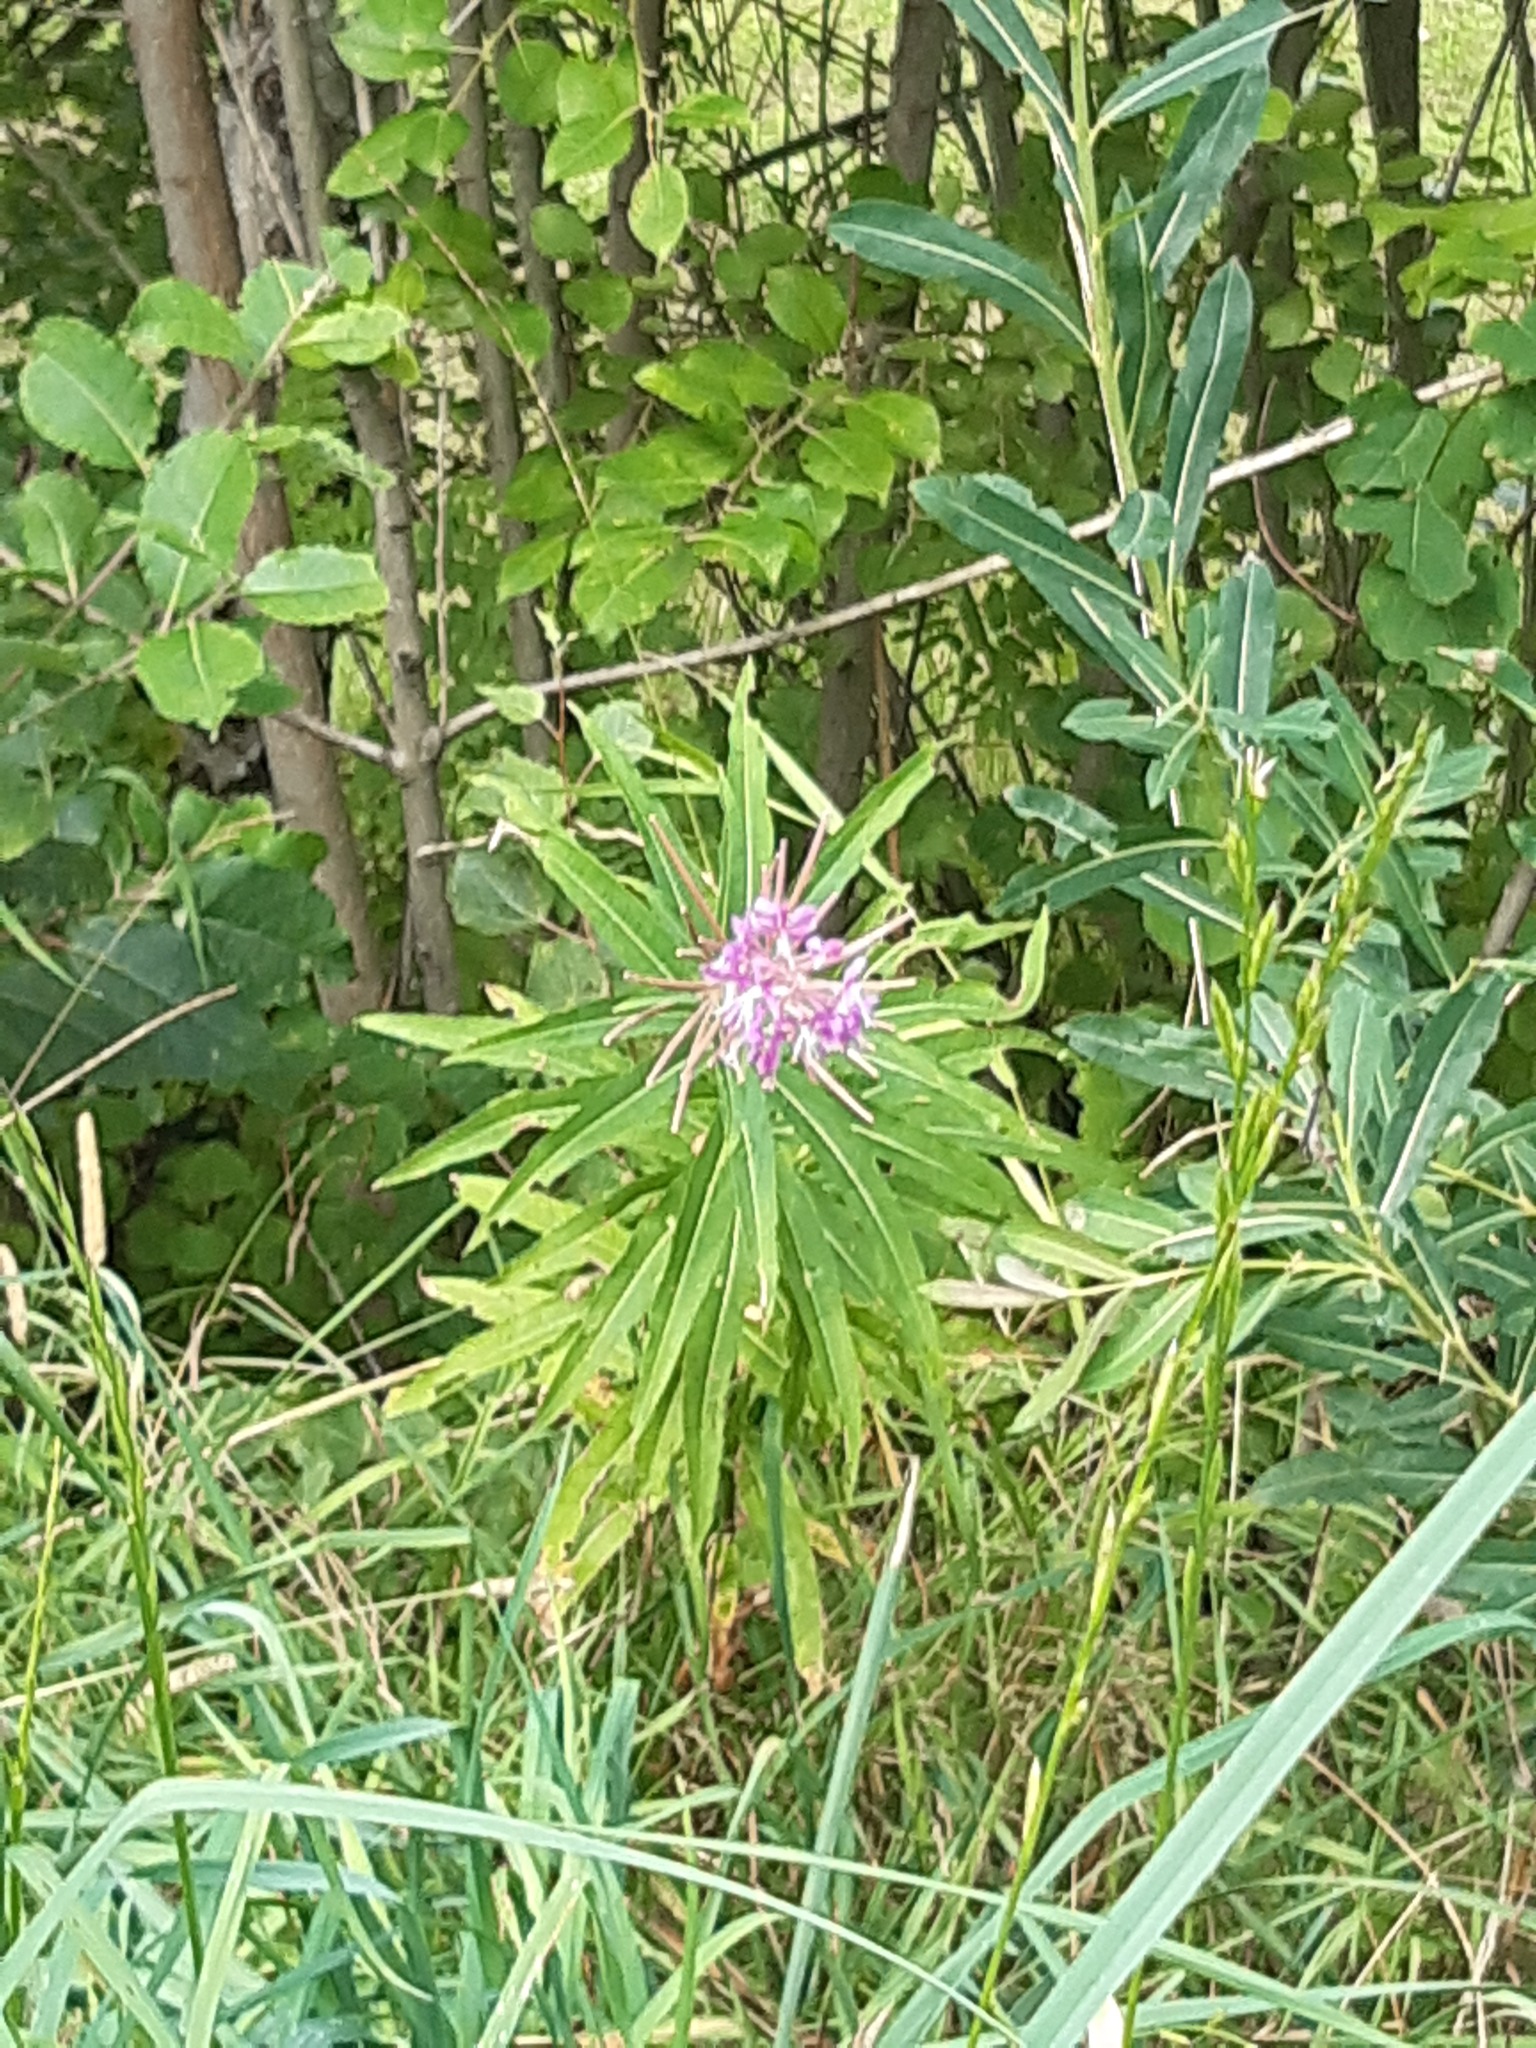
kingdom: Plantae
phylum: Tracheophyta
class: Magnoliopsida
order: Myrtales
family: Onagraceae
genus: Chamaenerion
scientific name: Chamaenerion angustifolium
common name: Fireweed
